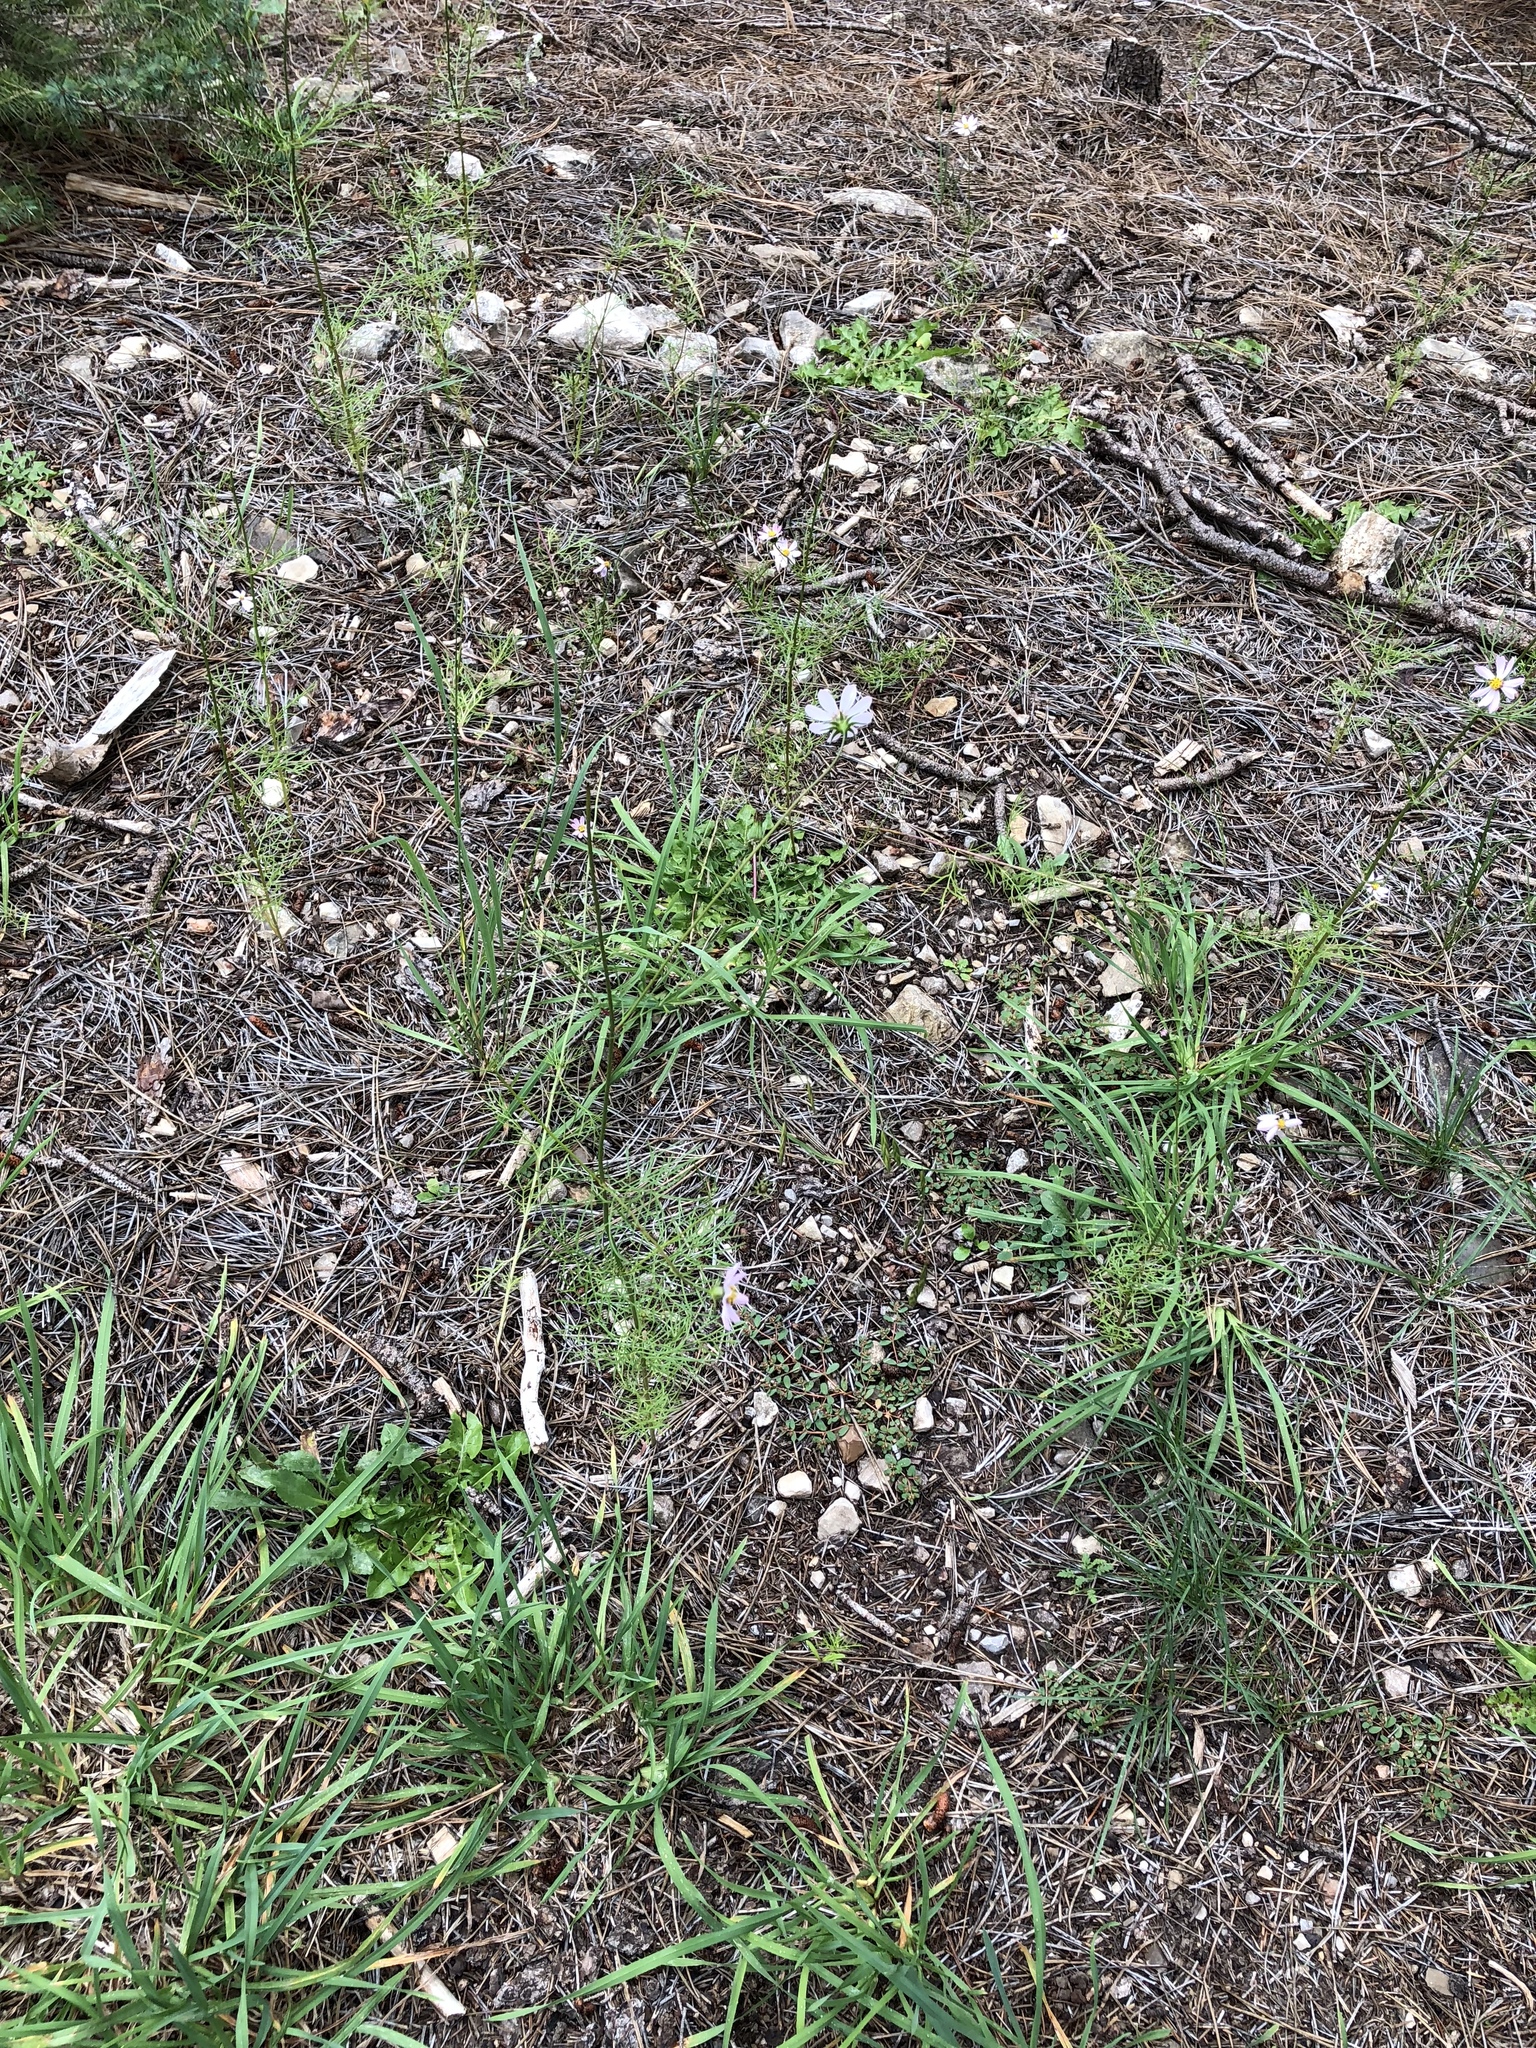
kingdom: Plantae
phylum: Tracheophyta
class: Magnoliopsida
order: Asterales
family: Asteraceae
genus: Cosmos
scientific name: Cosmos parviflorus
